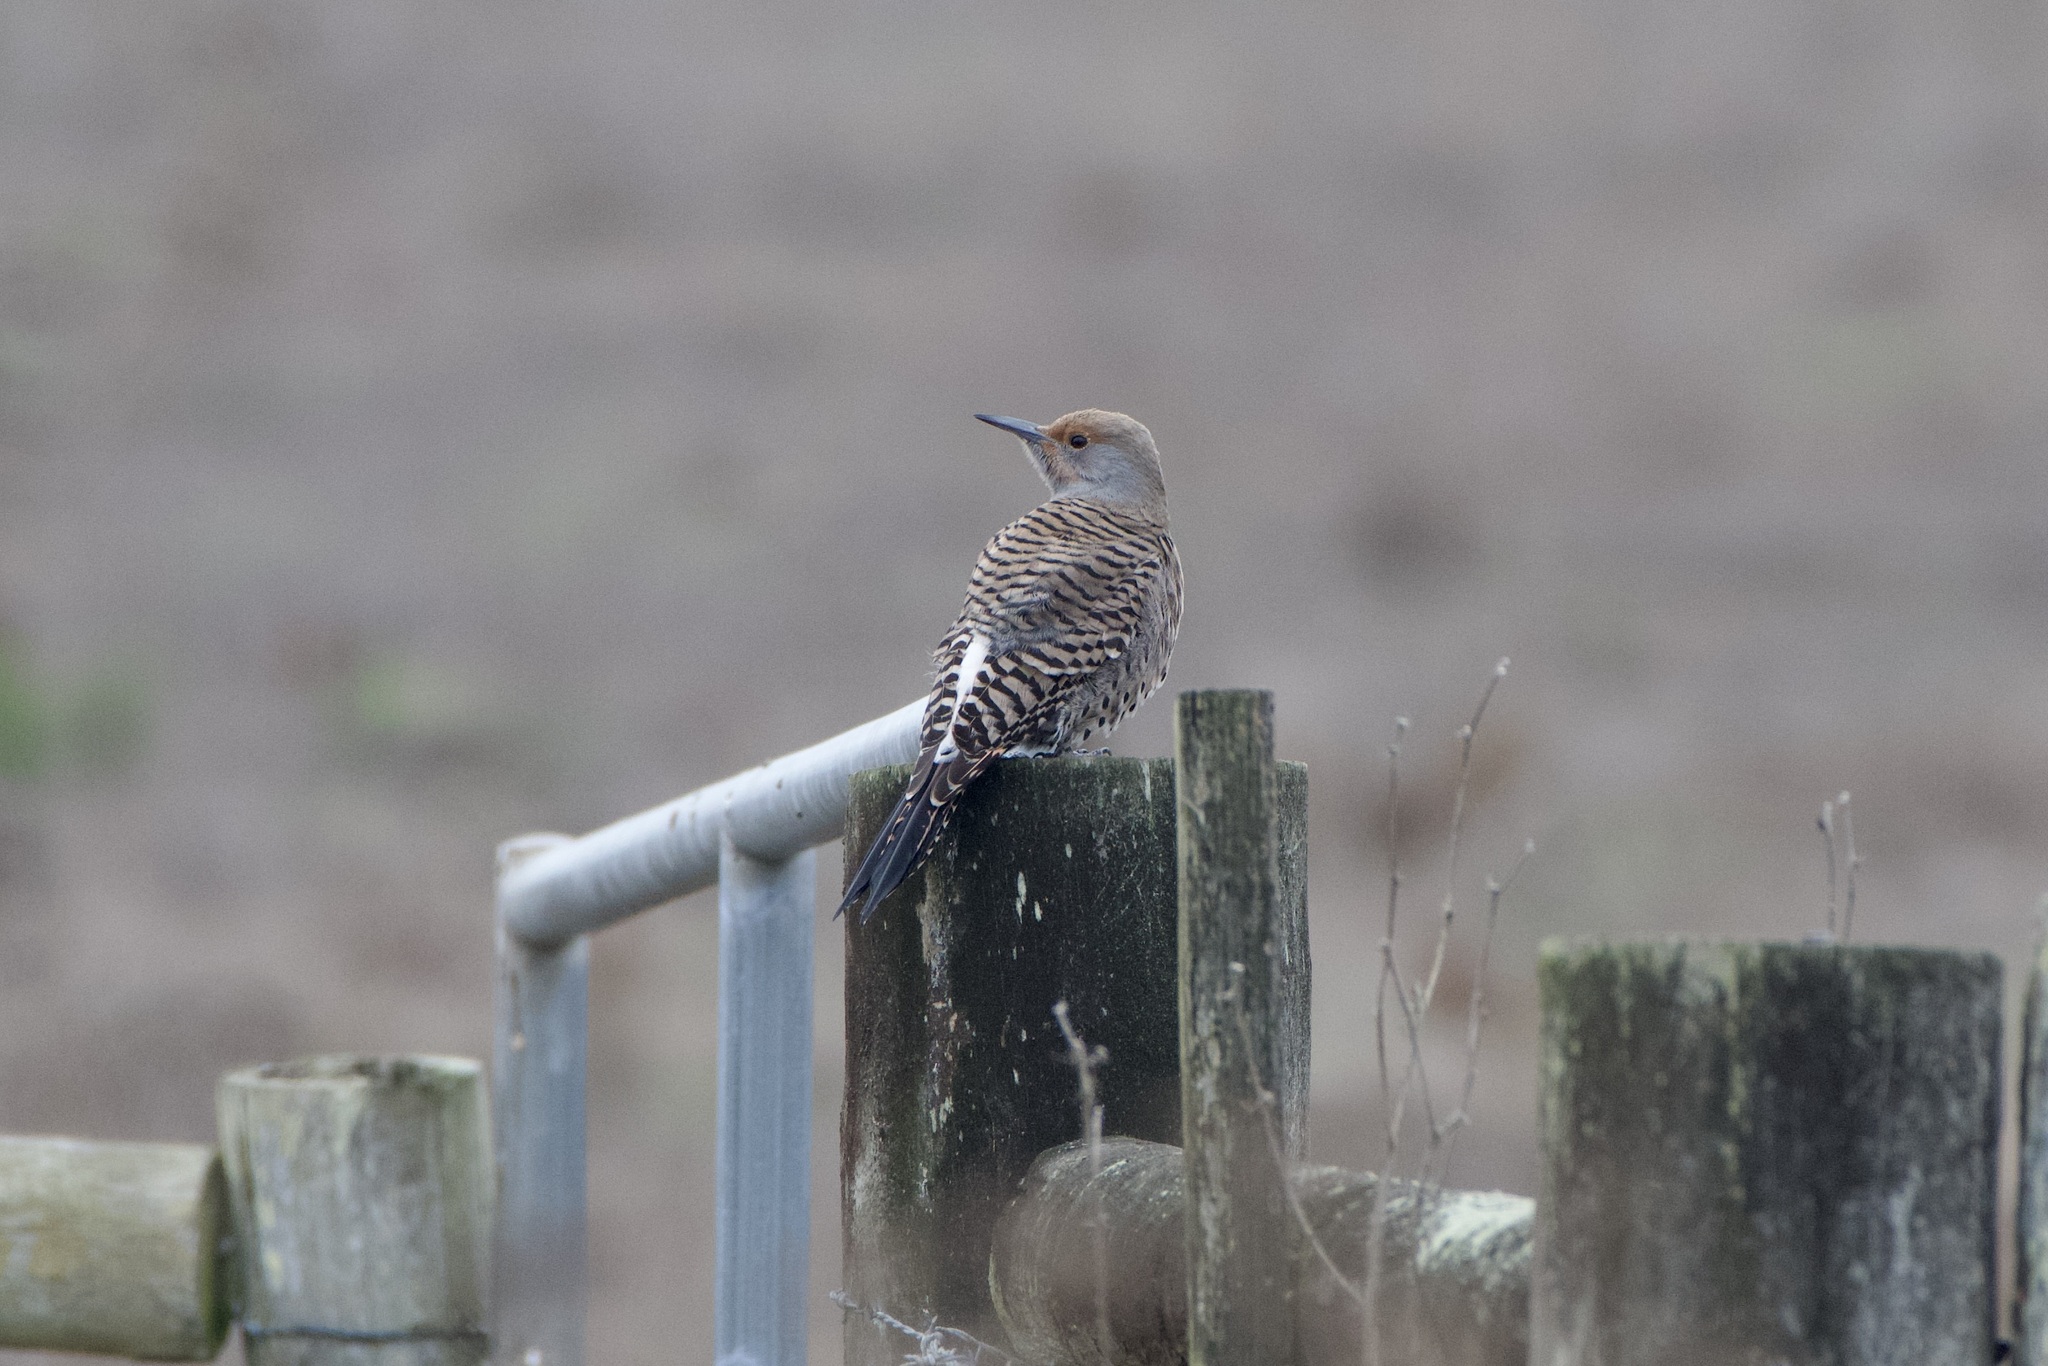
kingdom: Animalia
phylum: Chordata
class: Aves
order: Piciformes
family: Picidae
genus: Colaptes
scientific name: Colaptes auratus
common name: Northern flicker
